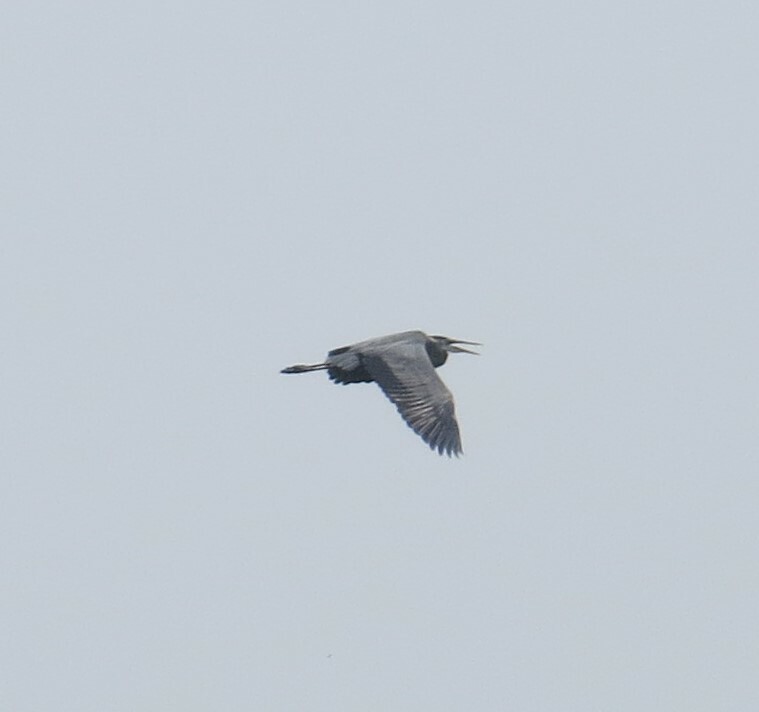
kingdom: Animalia
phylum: Chordata
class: Aves
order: Pelecaniformes
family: Ardeidae
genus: Ardea
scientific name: Ardea herodias
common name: Great blue heron
